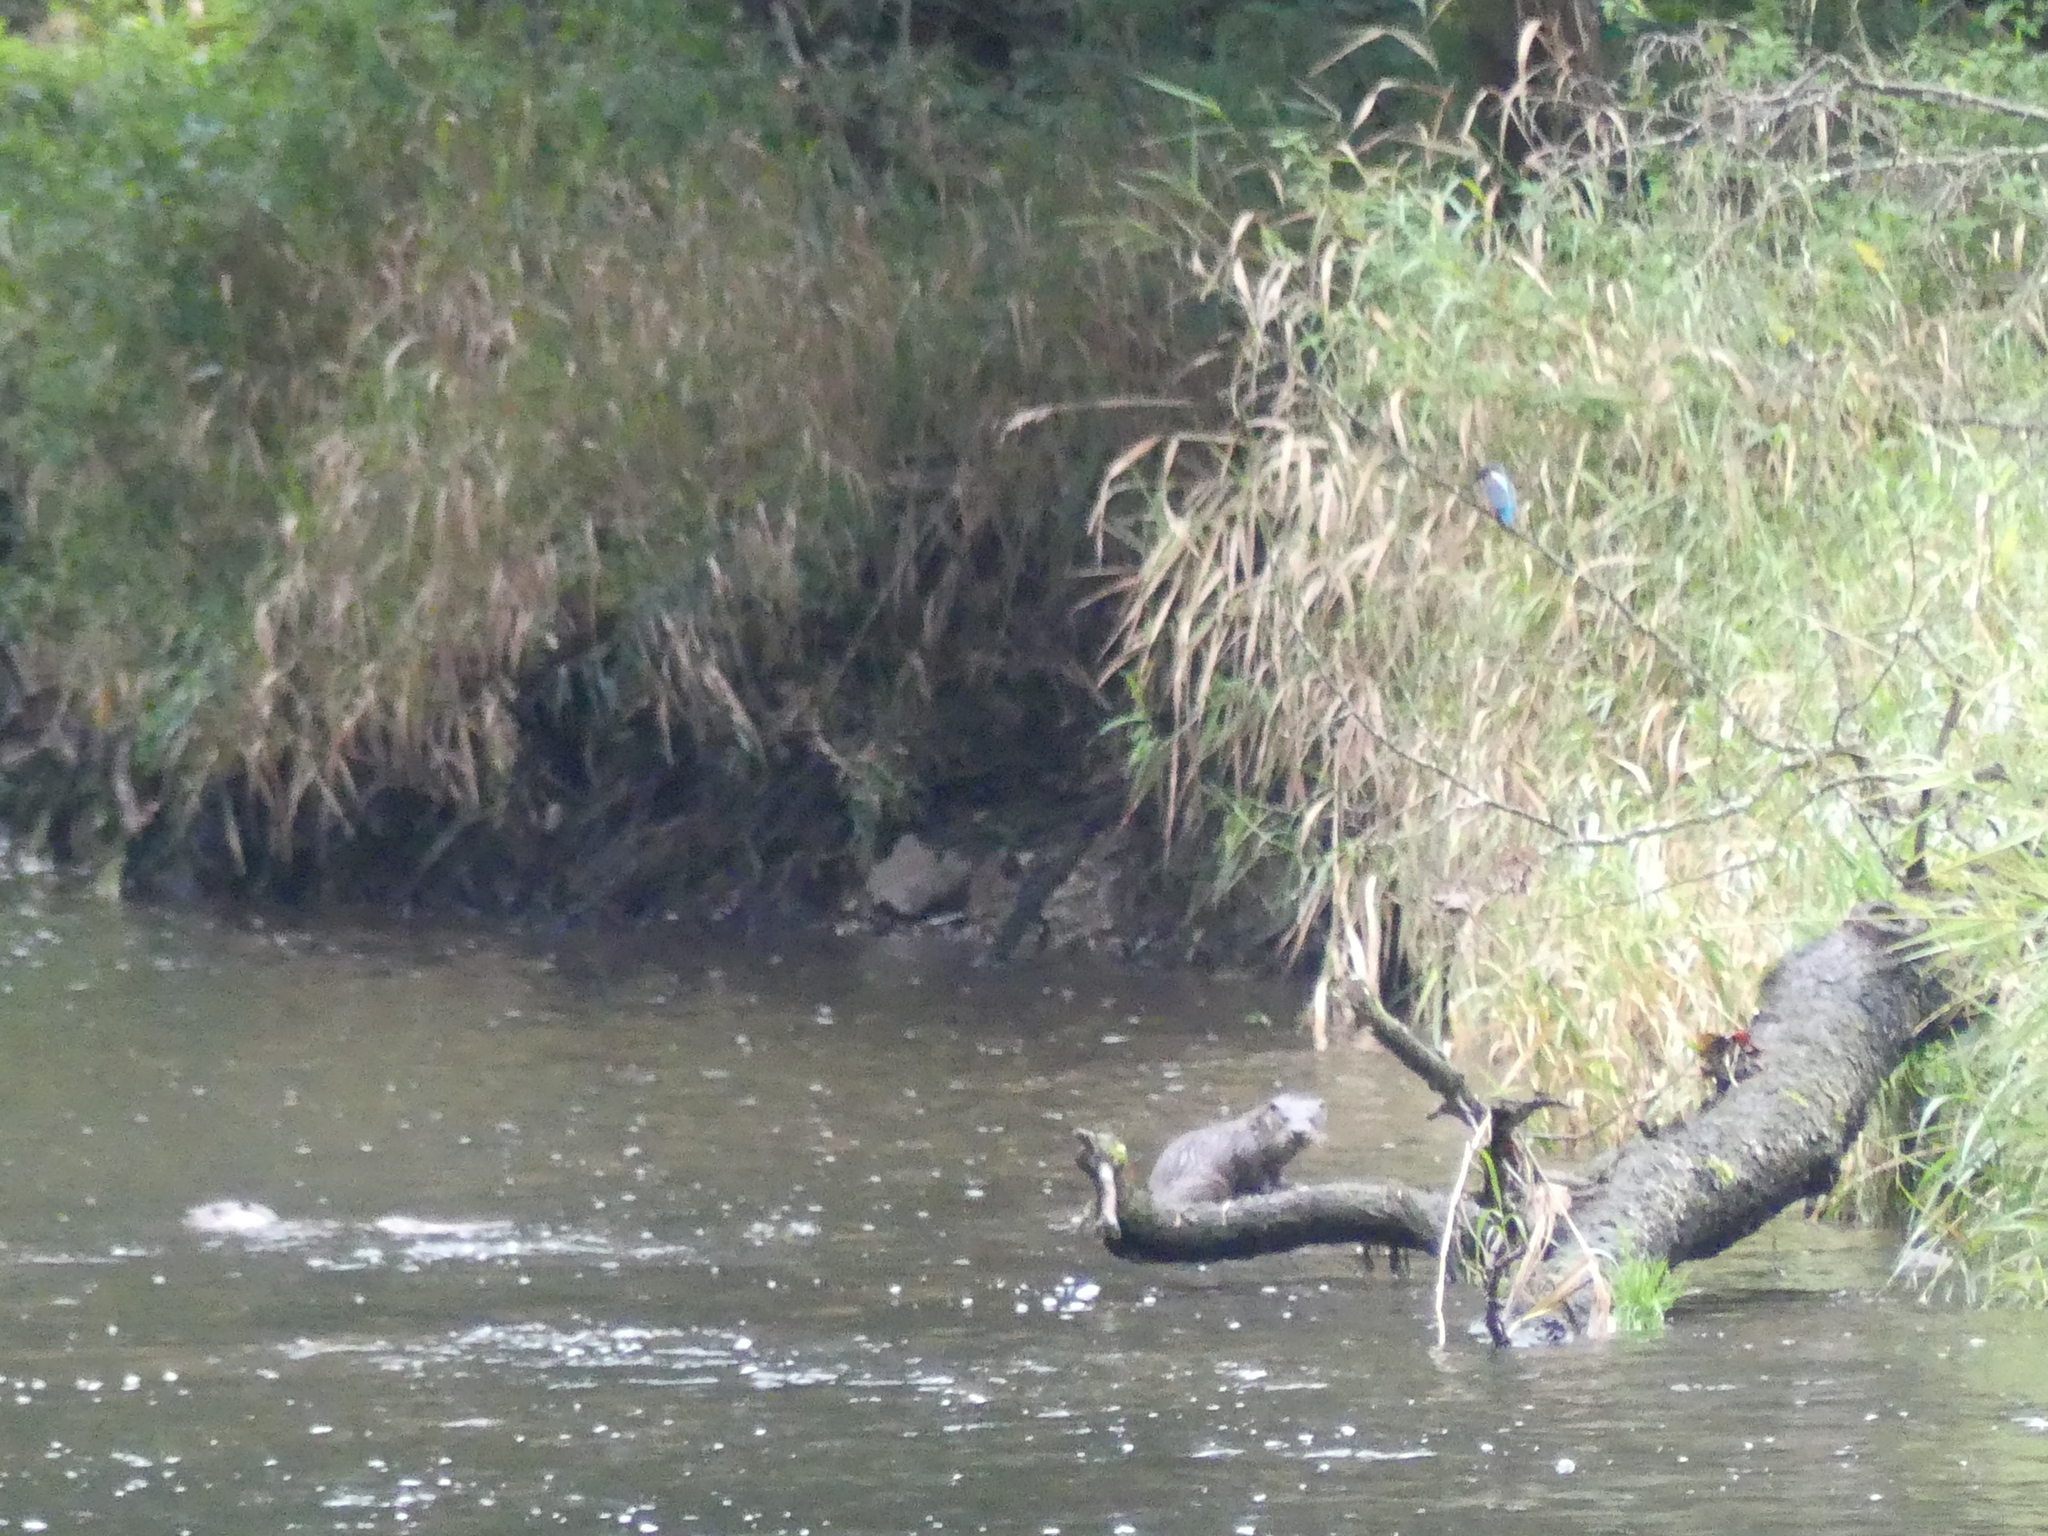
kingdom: Animalia
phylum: Chordata
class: Aves
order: Coraciiformes
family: Alcedinidae
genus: Alcedo
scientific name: Alcedo atthis
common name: Common kingfisher
